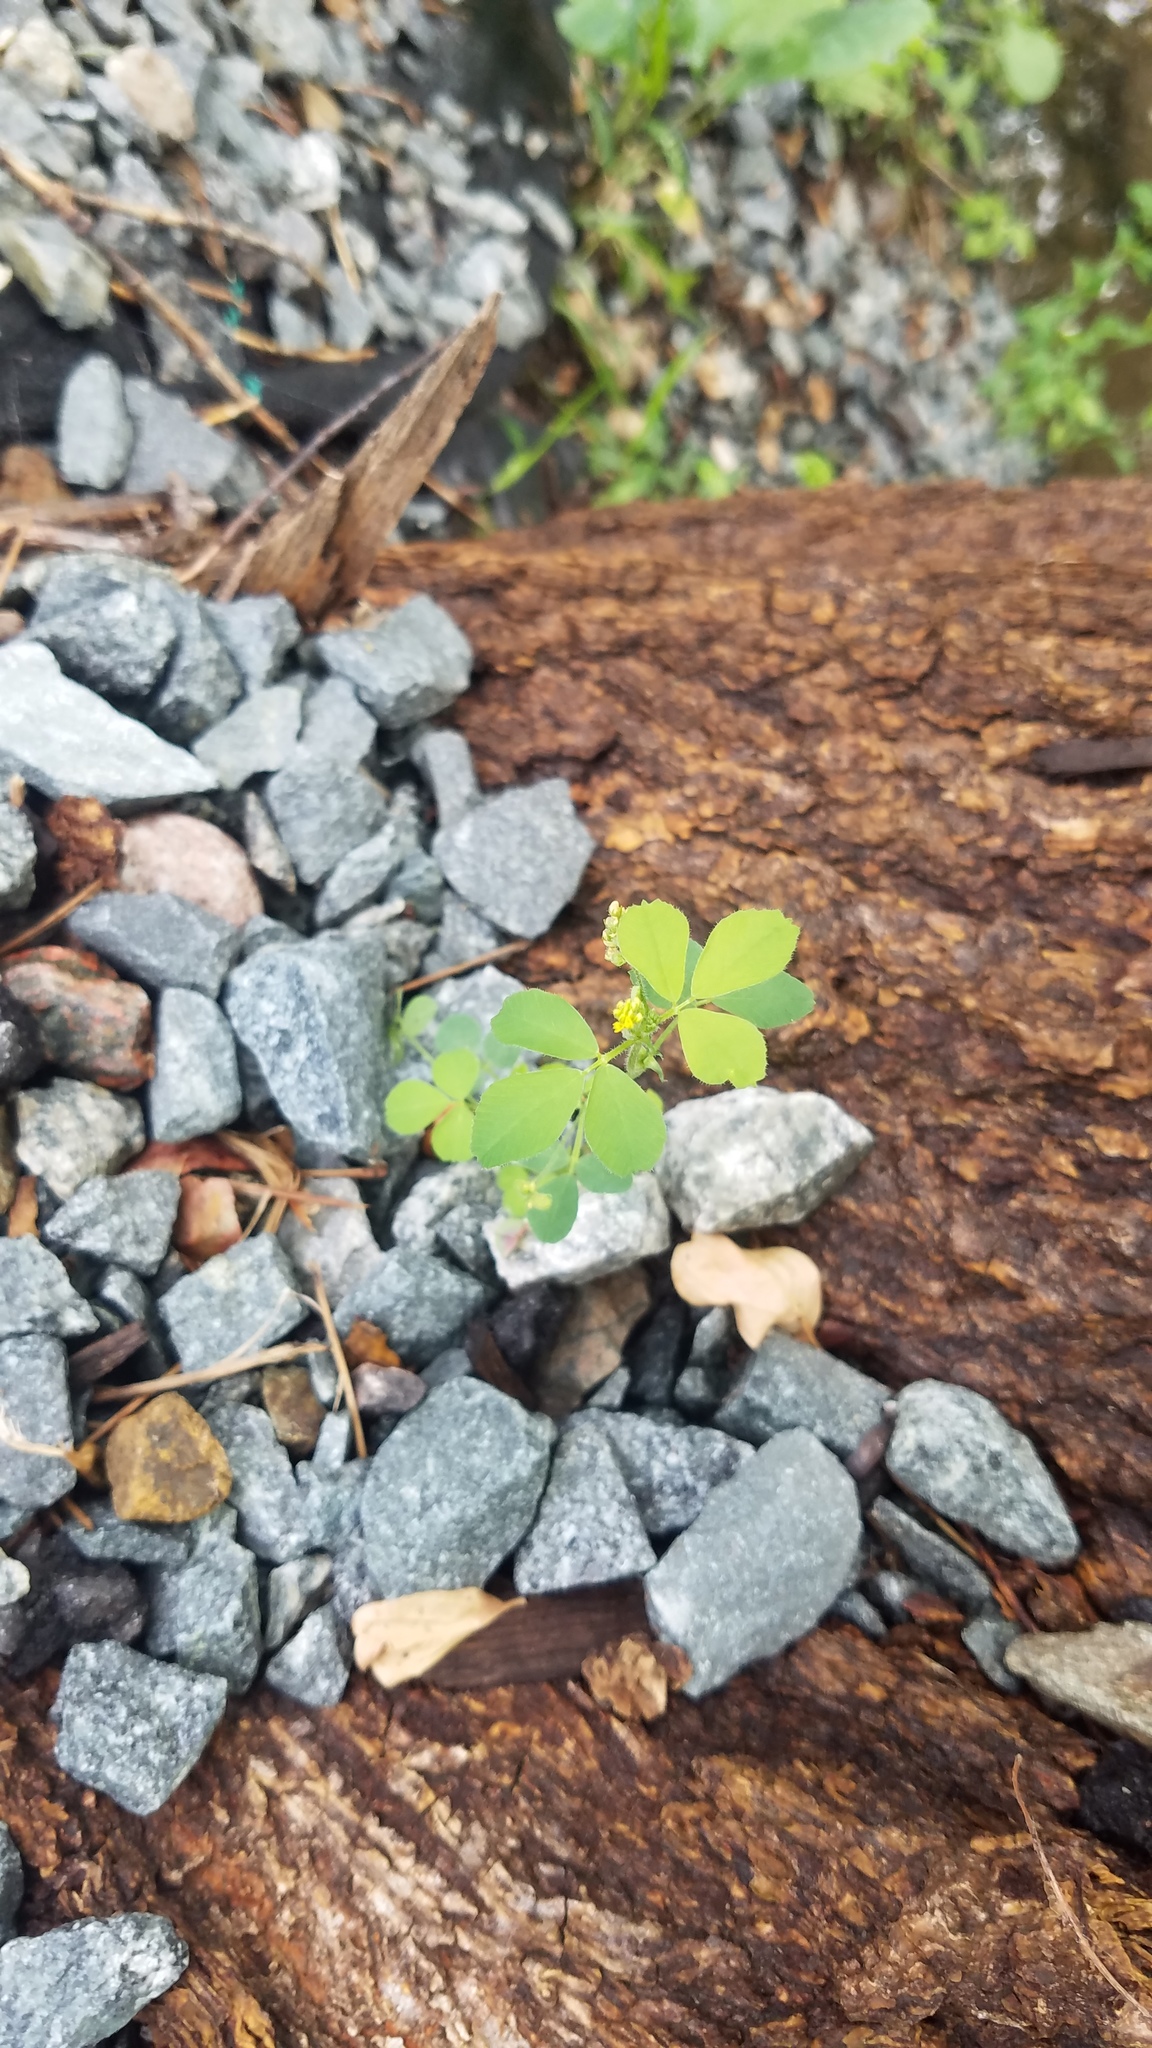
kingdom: Plantae
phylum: Tracheophyta
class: Magnoliopsida
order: Fabales
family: Fabaceae
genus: Medicago
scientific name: Medicago lupulina
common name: Black medick
